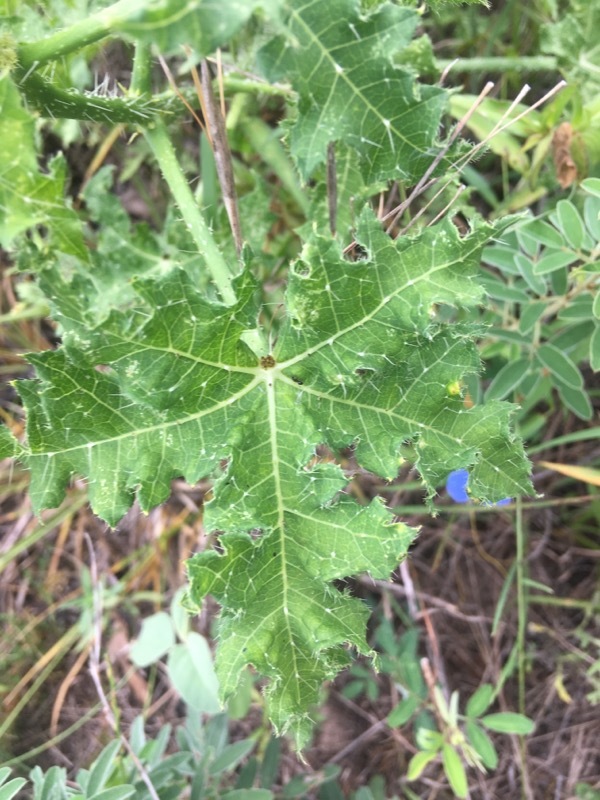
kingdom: Plantae
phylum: Tracheophyta
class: Magnoliopsida
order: Malpighiales
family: Euphorbiaceae
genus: Cnidoscolus
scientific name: Cnidoscolus texanus
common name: Texas bull-nettle
